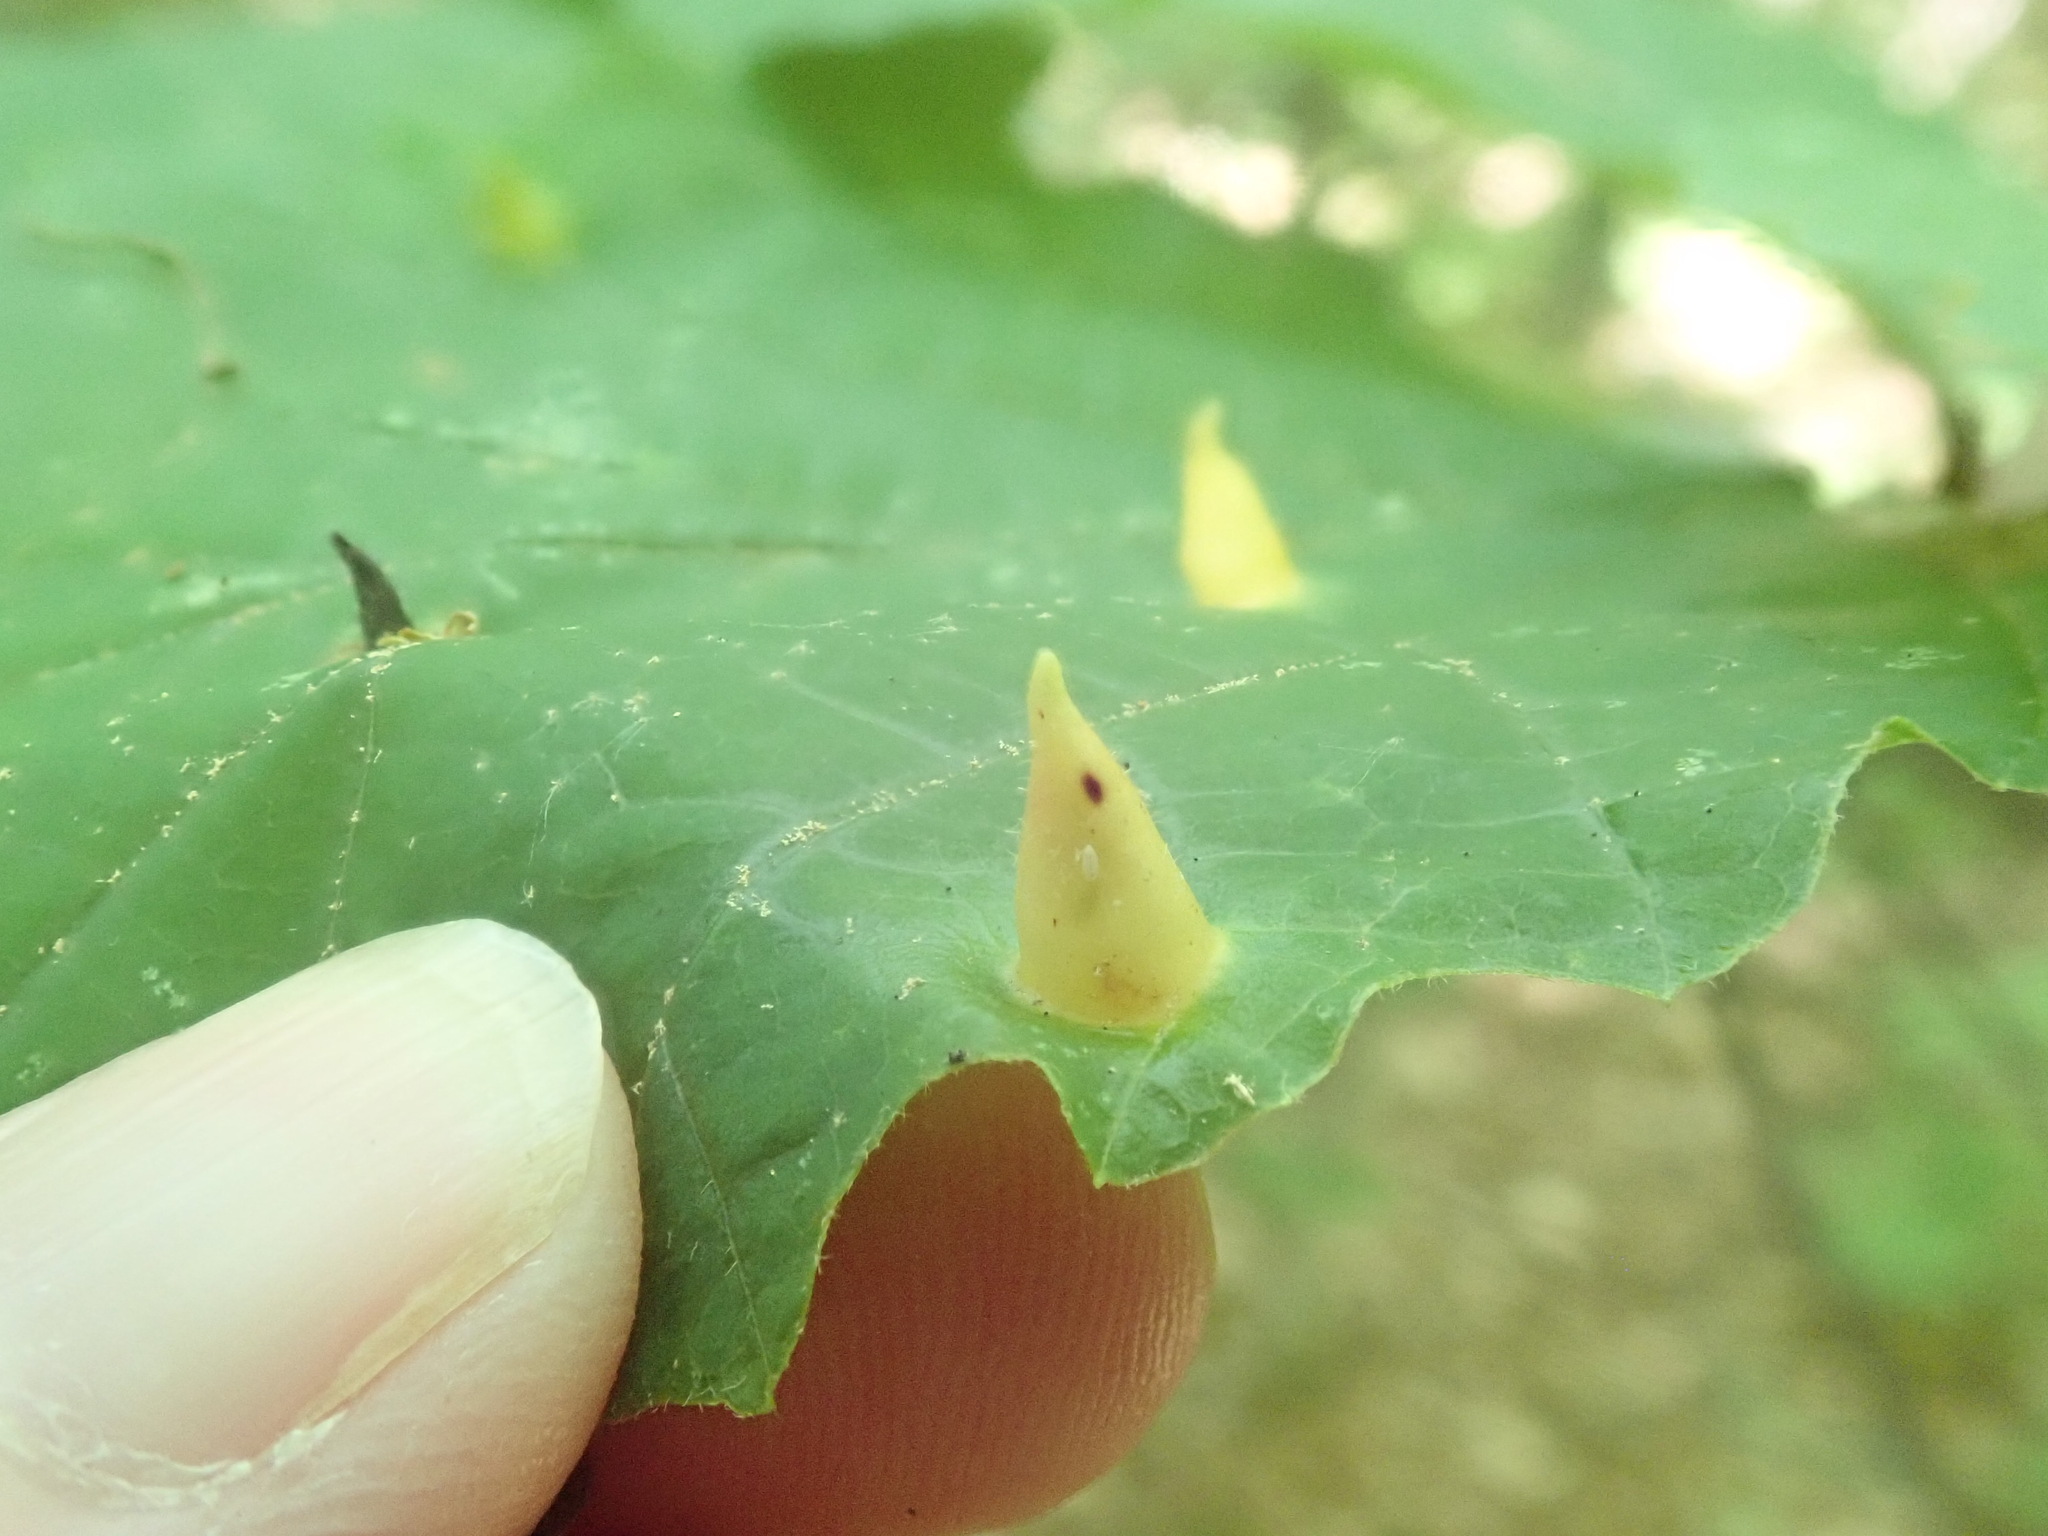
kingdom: Animalia
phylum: Arthropoda
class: Insecta
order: Hemiptera
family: Aphididae
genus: Hormaphis
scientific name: Hormaphis hamamelidis
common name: Witch-hazel cone gall aphid
